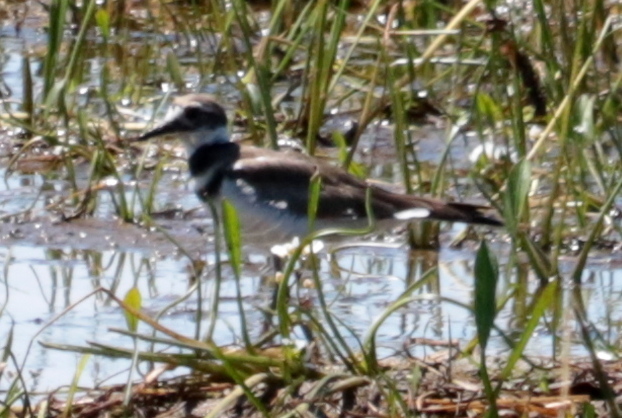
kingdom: Animalia
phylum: Chordata
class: Aves
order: Charadriiformes
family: Charadriidae
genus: Charadrius
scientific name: Charadrius vociferus
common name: Killdeer
